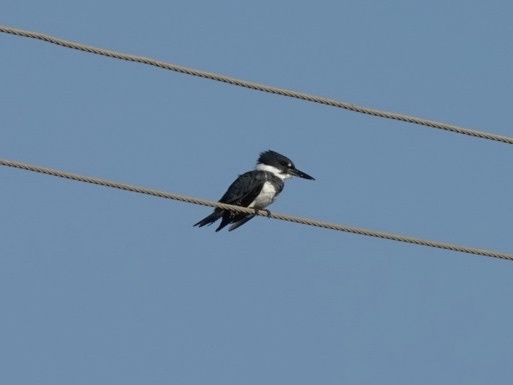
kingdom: Animalia
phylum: Chordata
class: Aves
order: Coraciiformes
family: Alcedinidae
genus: Megaceryle
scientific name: Megaceryle alcyon
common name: Belted kingfisher
